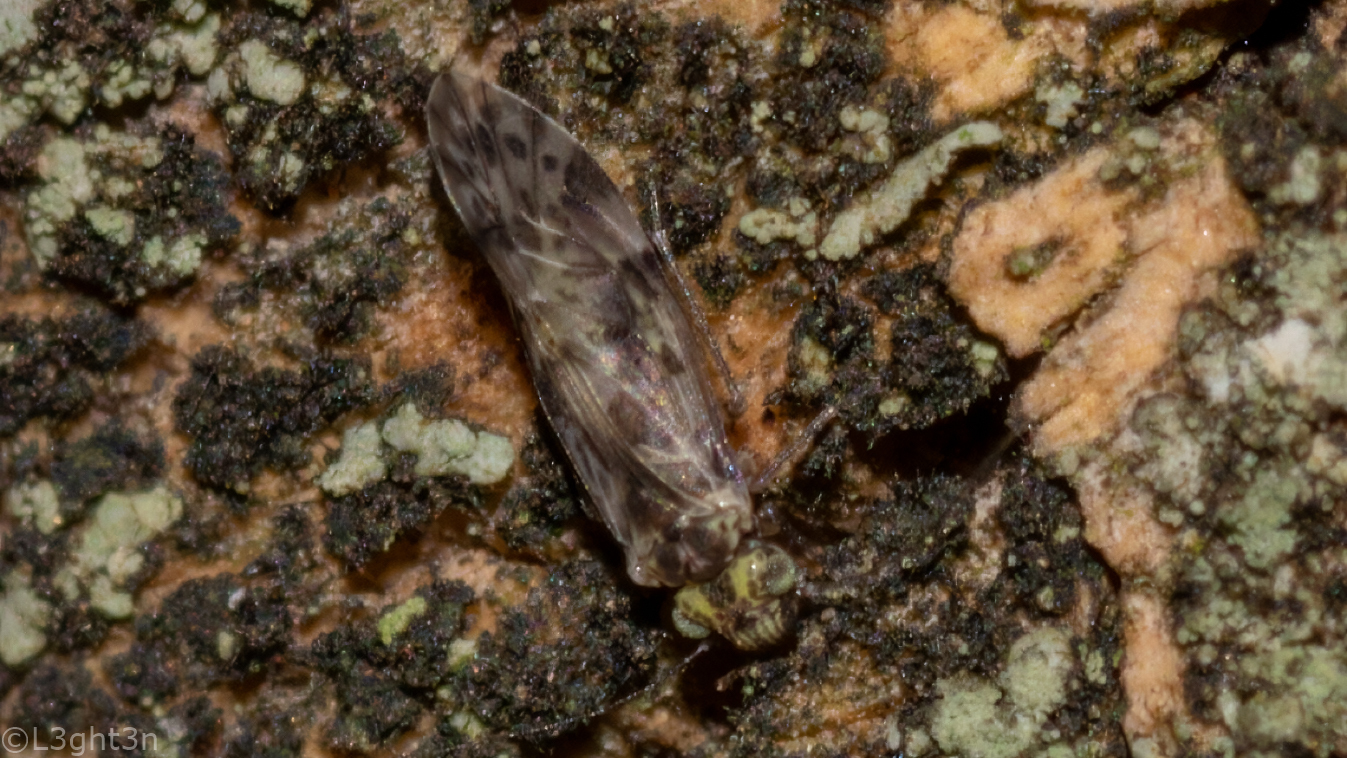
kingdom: Animalia
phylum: Arthropoda
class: Insecta
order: Psocodea
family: Psocidae
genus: Trichadenotecnum
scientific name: Trichadenotecnum circularoides
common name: Common bark louse
